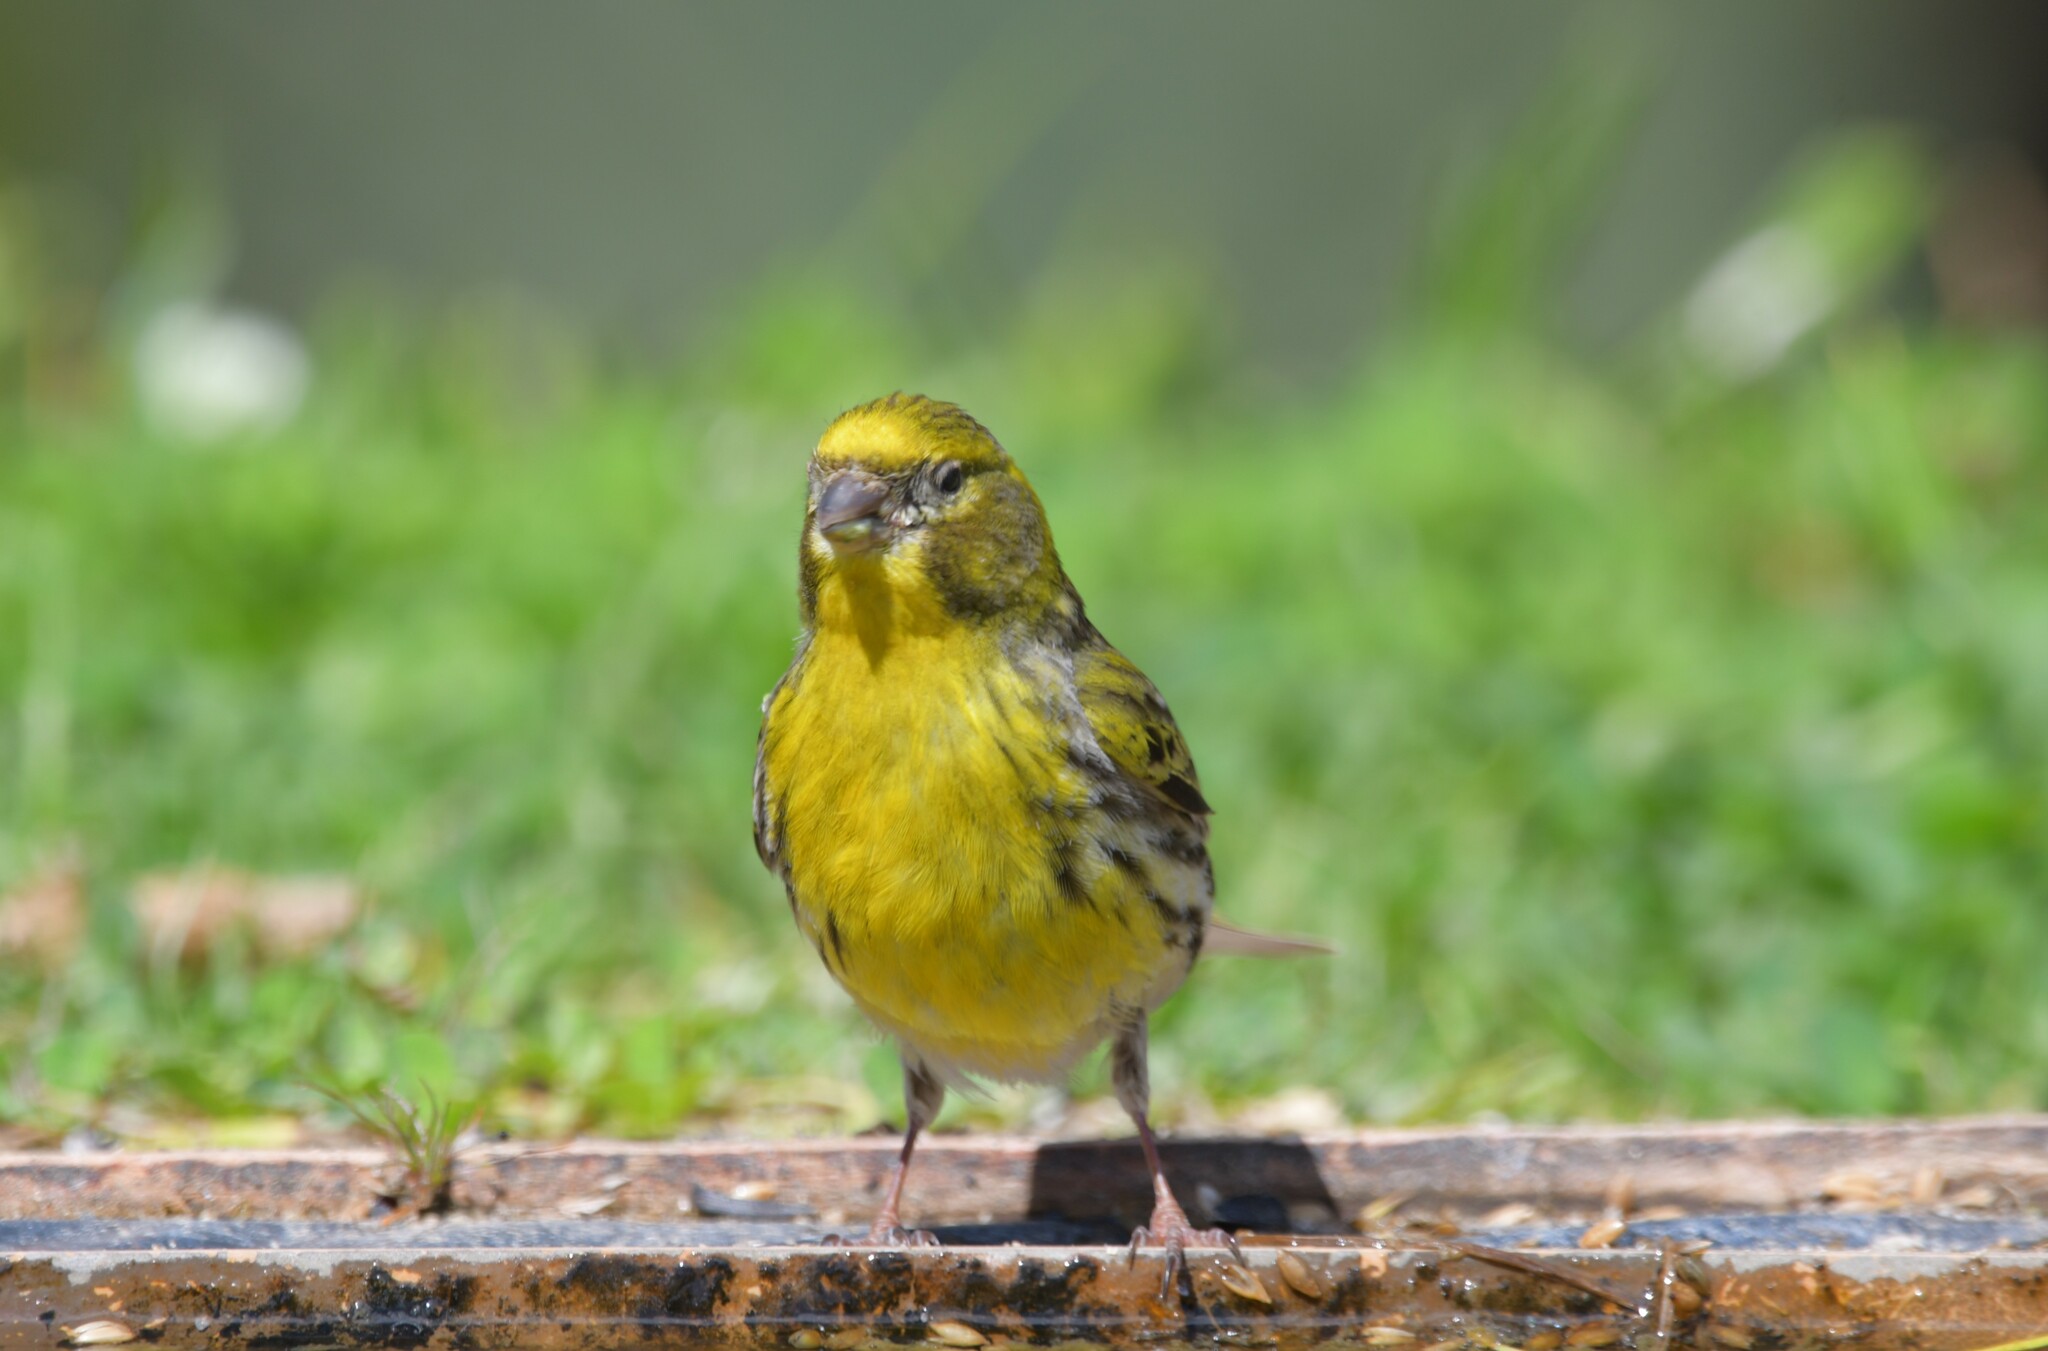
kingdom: Animalia
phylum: Chordata
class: Aves
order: Passeriformes
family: Fringillidae
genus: Serinus
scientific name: Serinus serinus
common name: European serin
